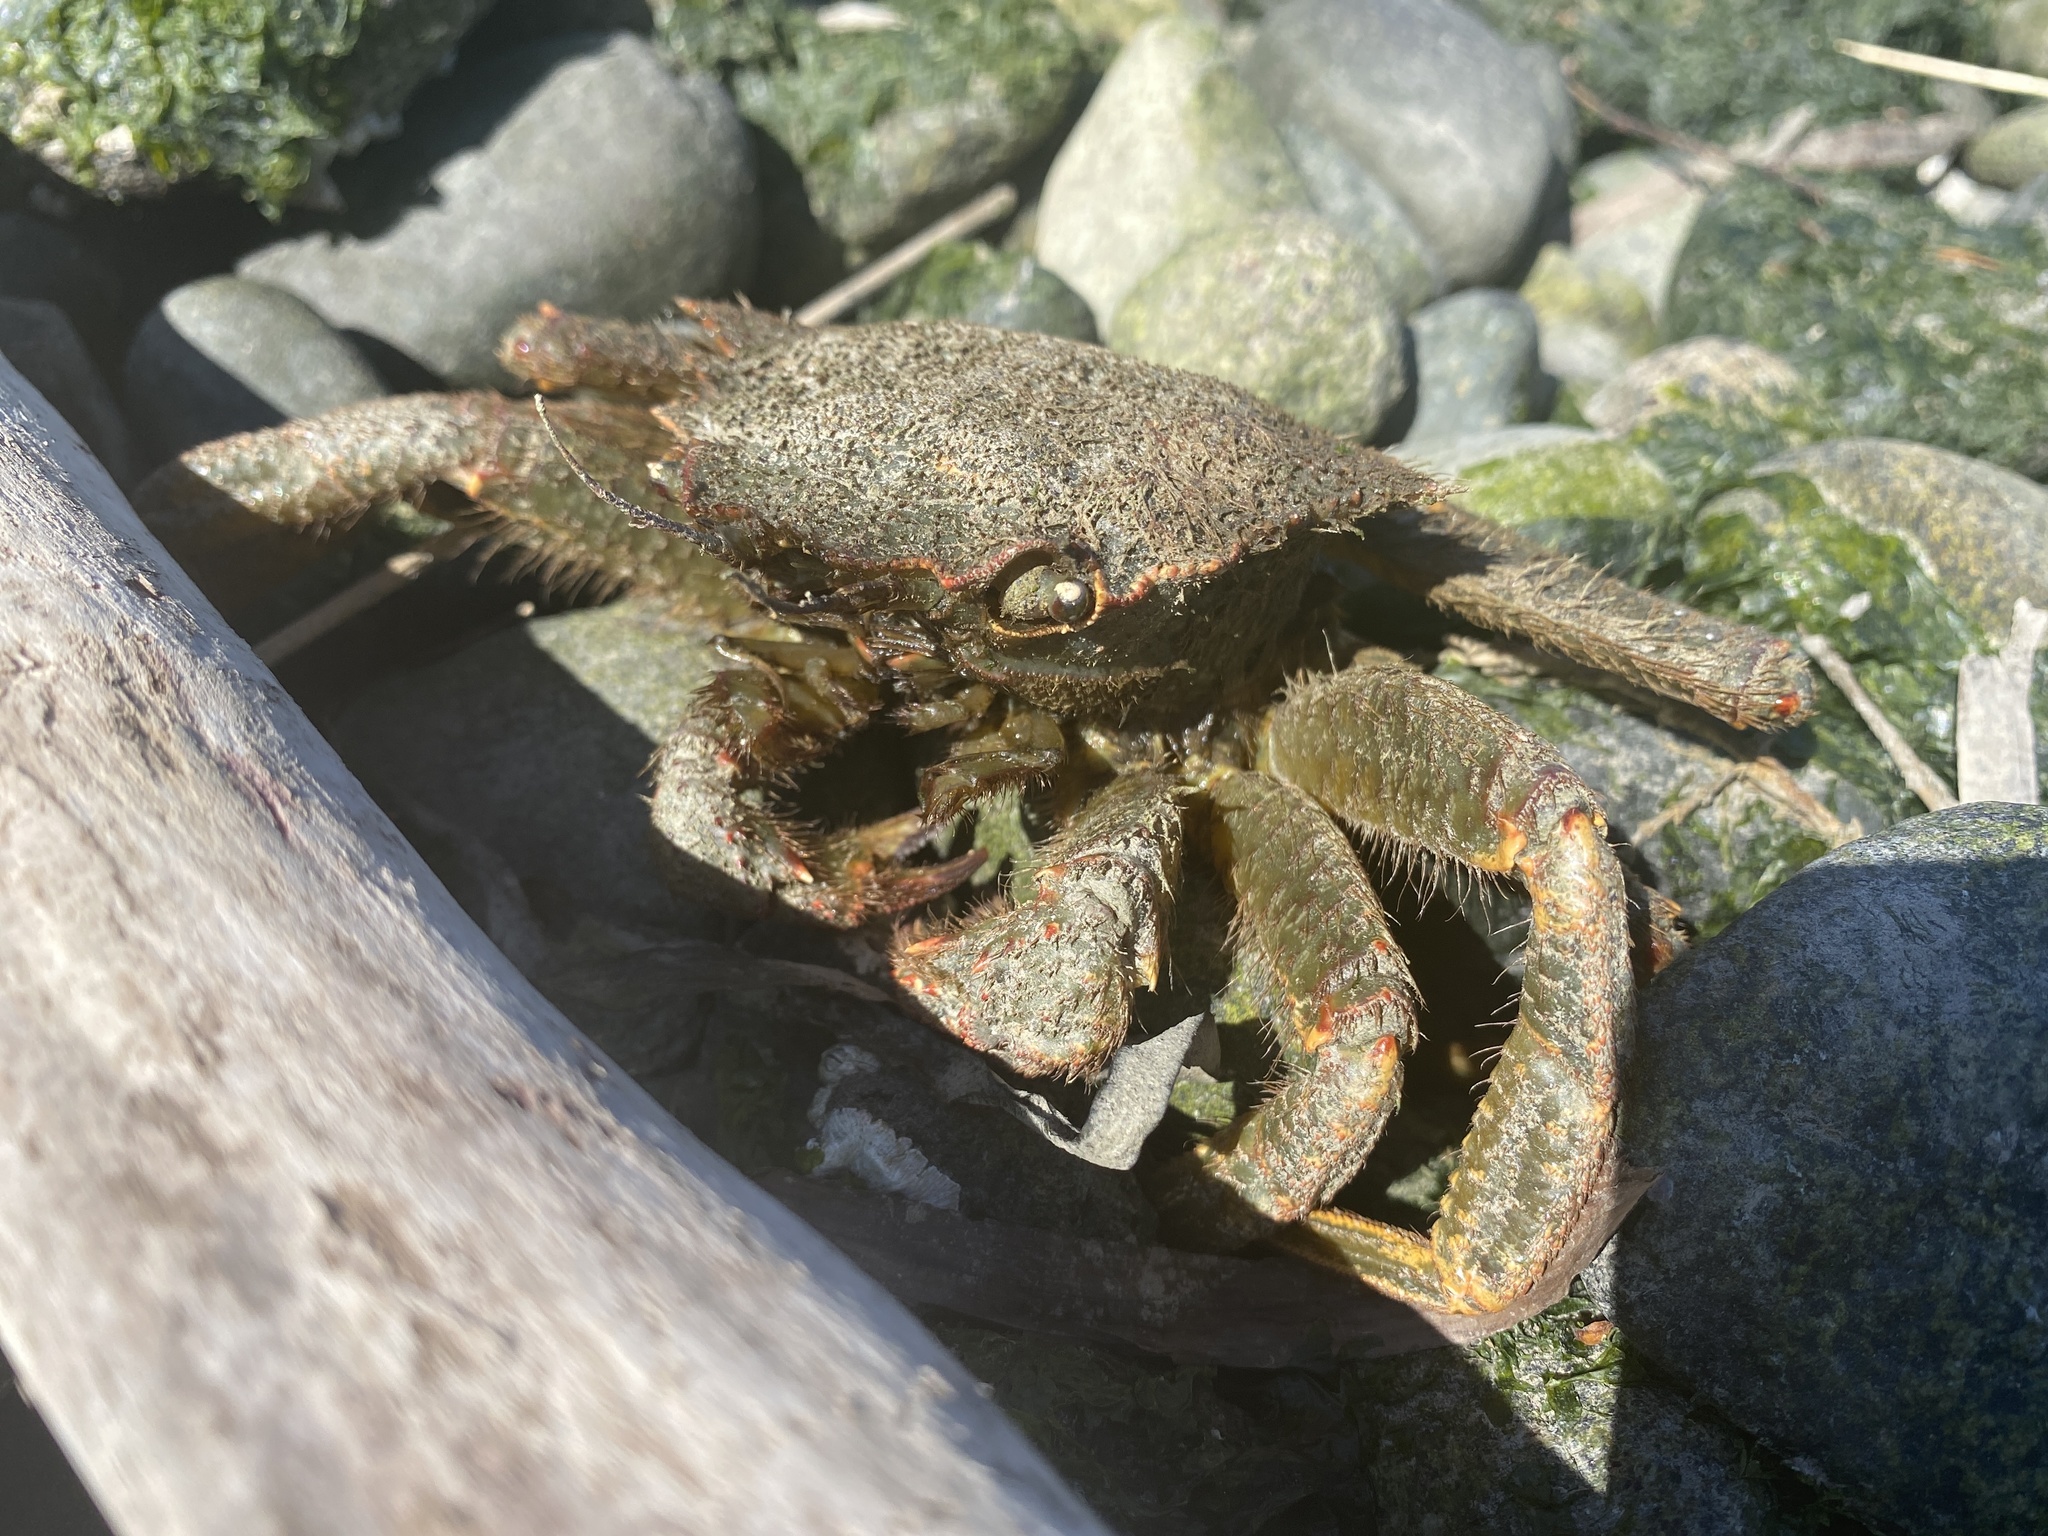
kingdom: Animalia
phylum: Arthropoda
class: Malacostraca
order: Decapoda
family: Cheiragonidae
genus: Telmessus
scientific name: Telmessus cheiragonus
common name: Helmet crab
